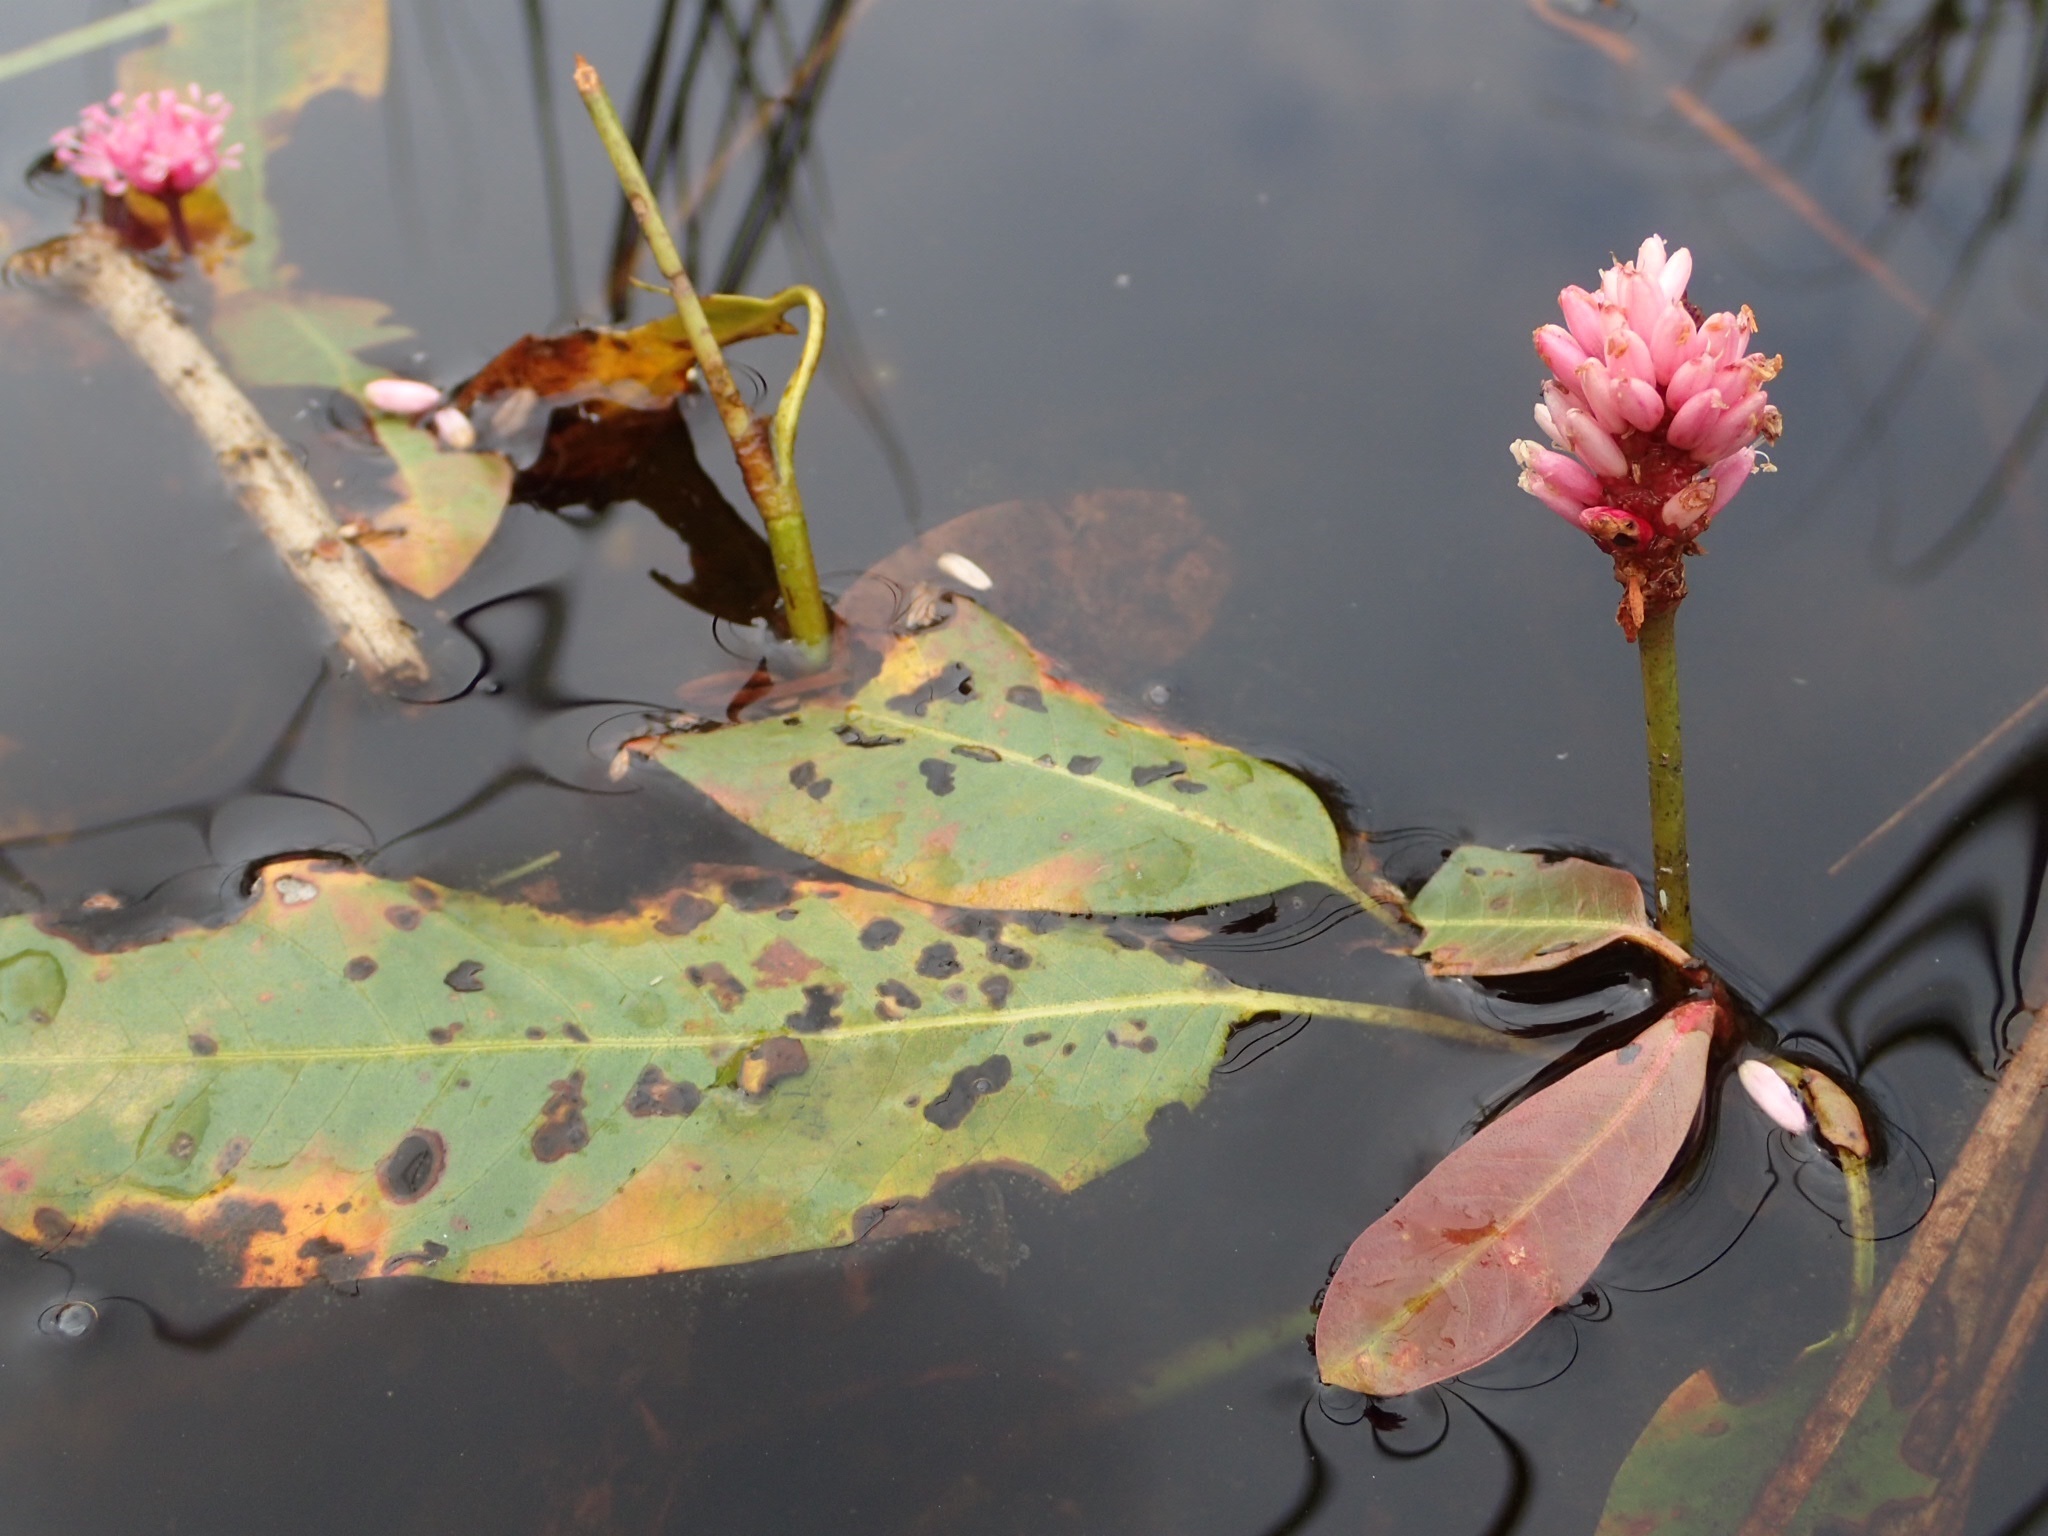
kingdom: Plantae
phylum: Tracheophyta
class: Magnoliopsida
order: Caryophyllales
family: Polygonaceae
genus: Persicaria
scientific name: Persicaria amphibia
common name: Amphibious bistort
